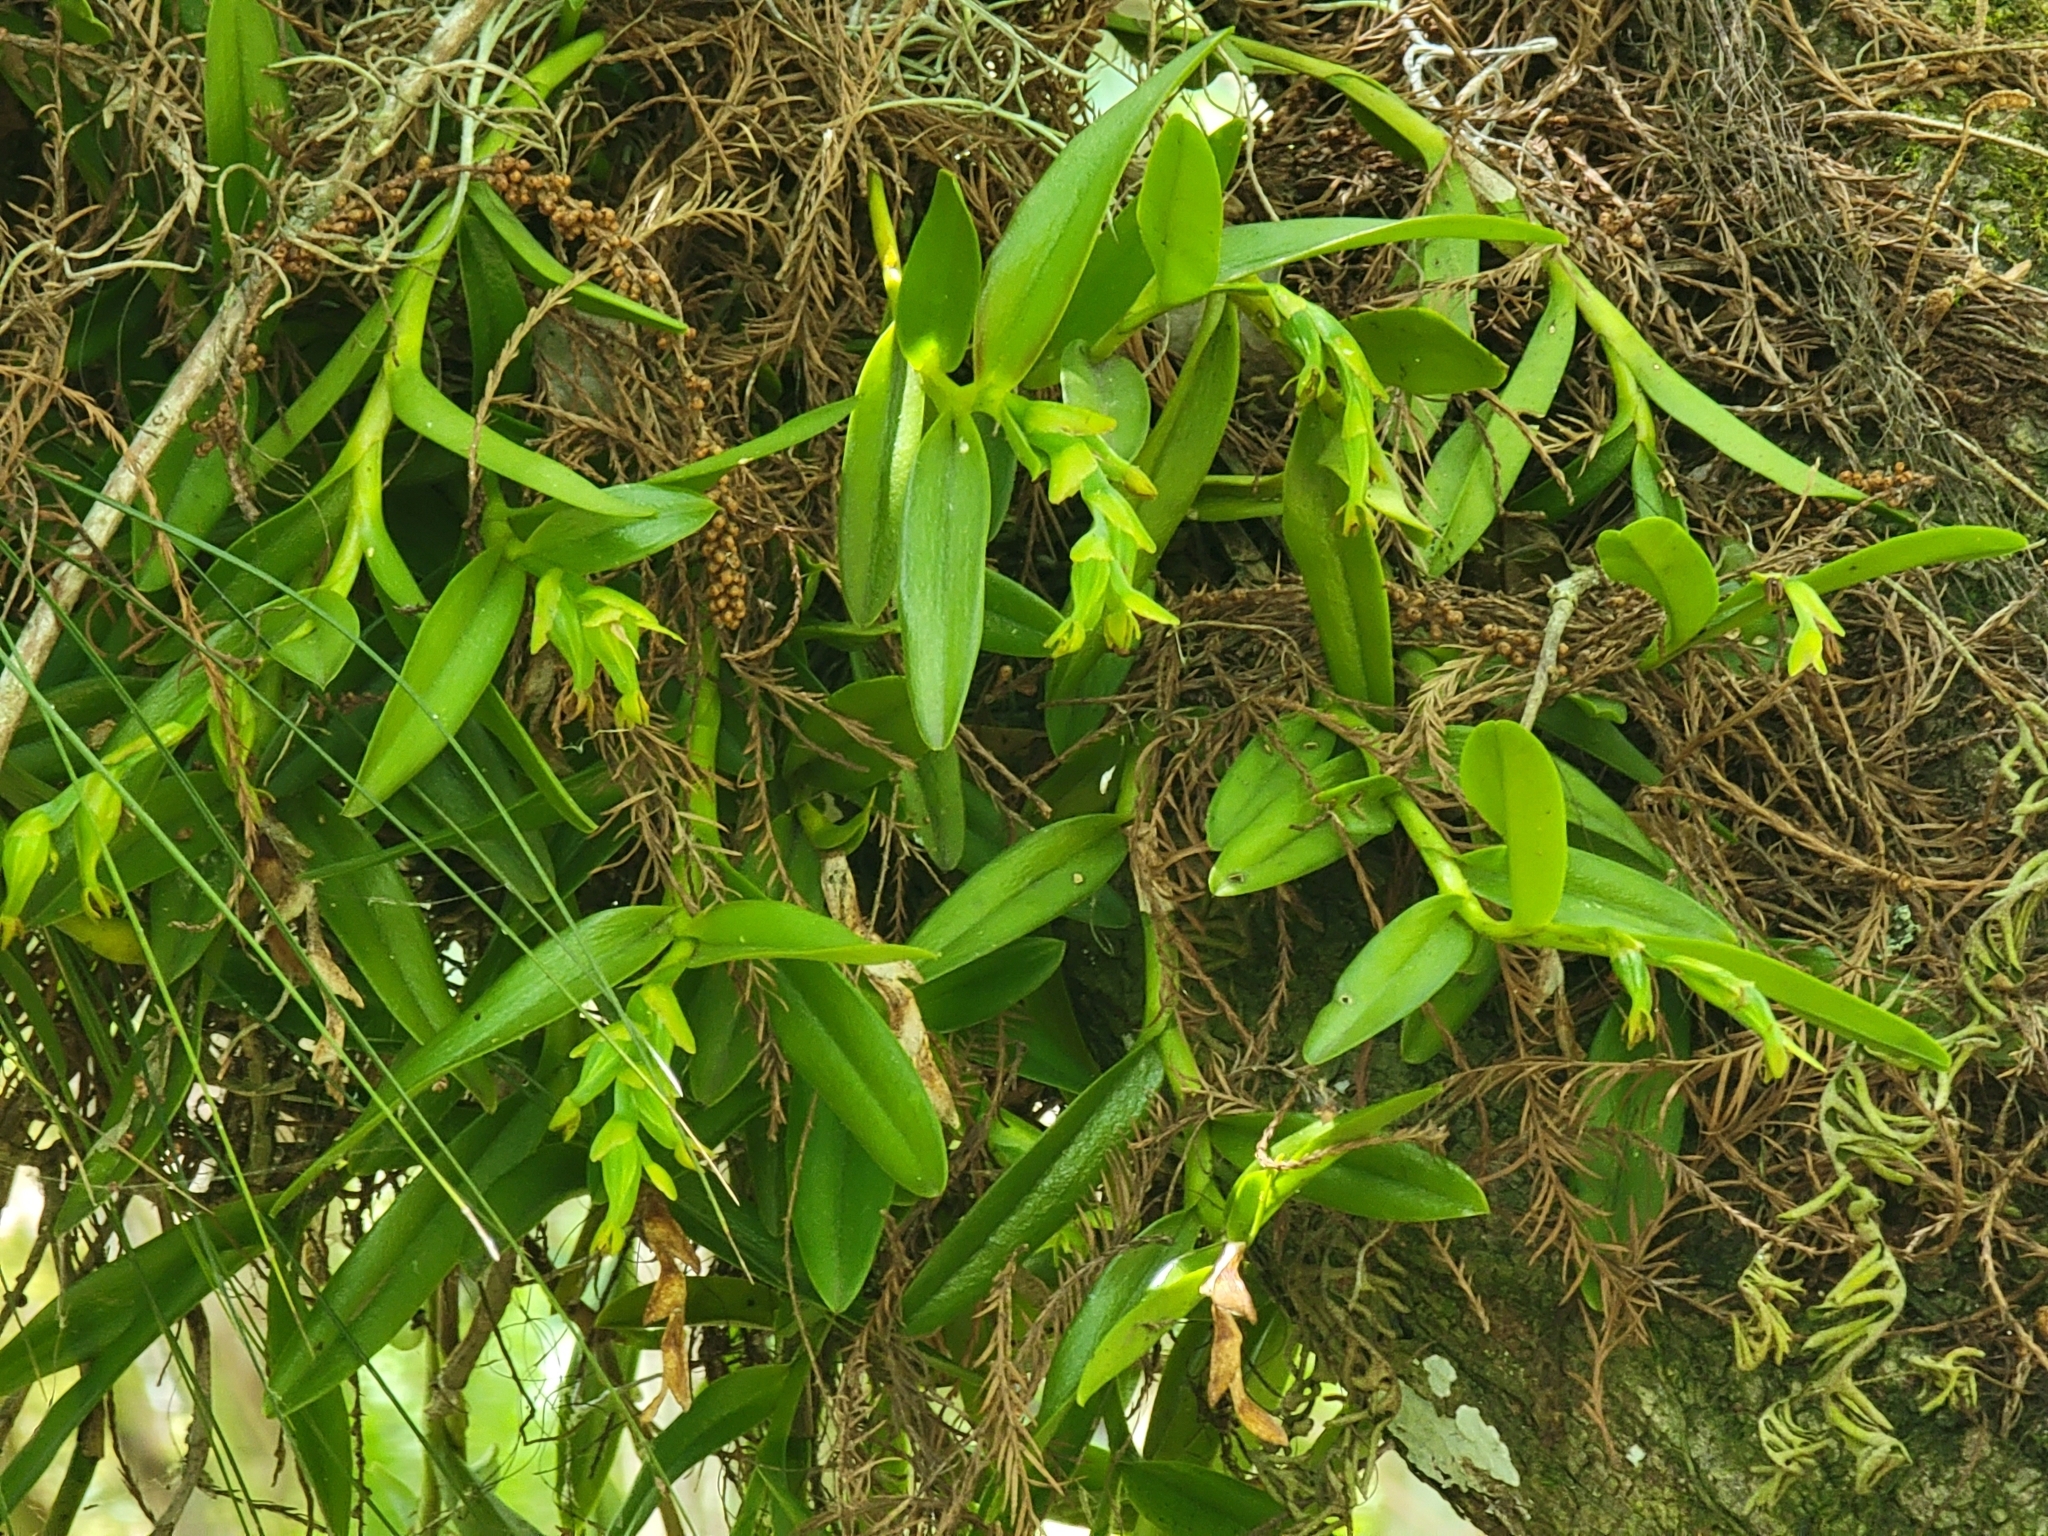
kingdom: Plantae
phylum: Tracheophyta
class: Liliopsida
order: Asparagales
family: Orchidaceae
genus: Epidendrum
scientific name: Epidendrum rigidum
